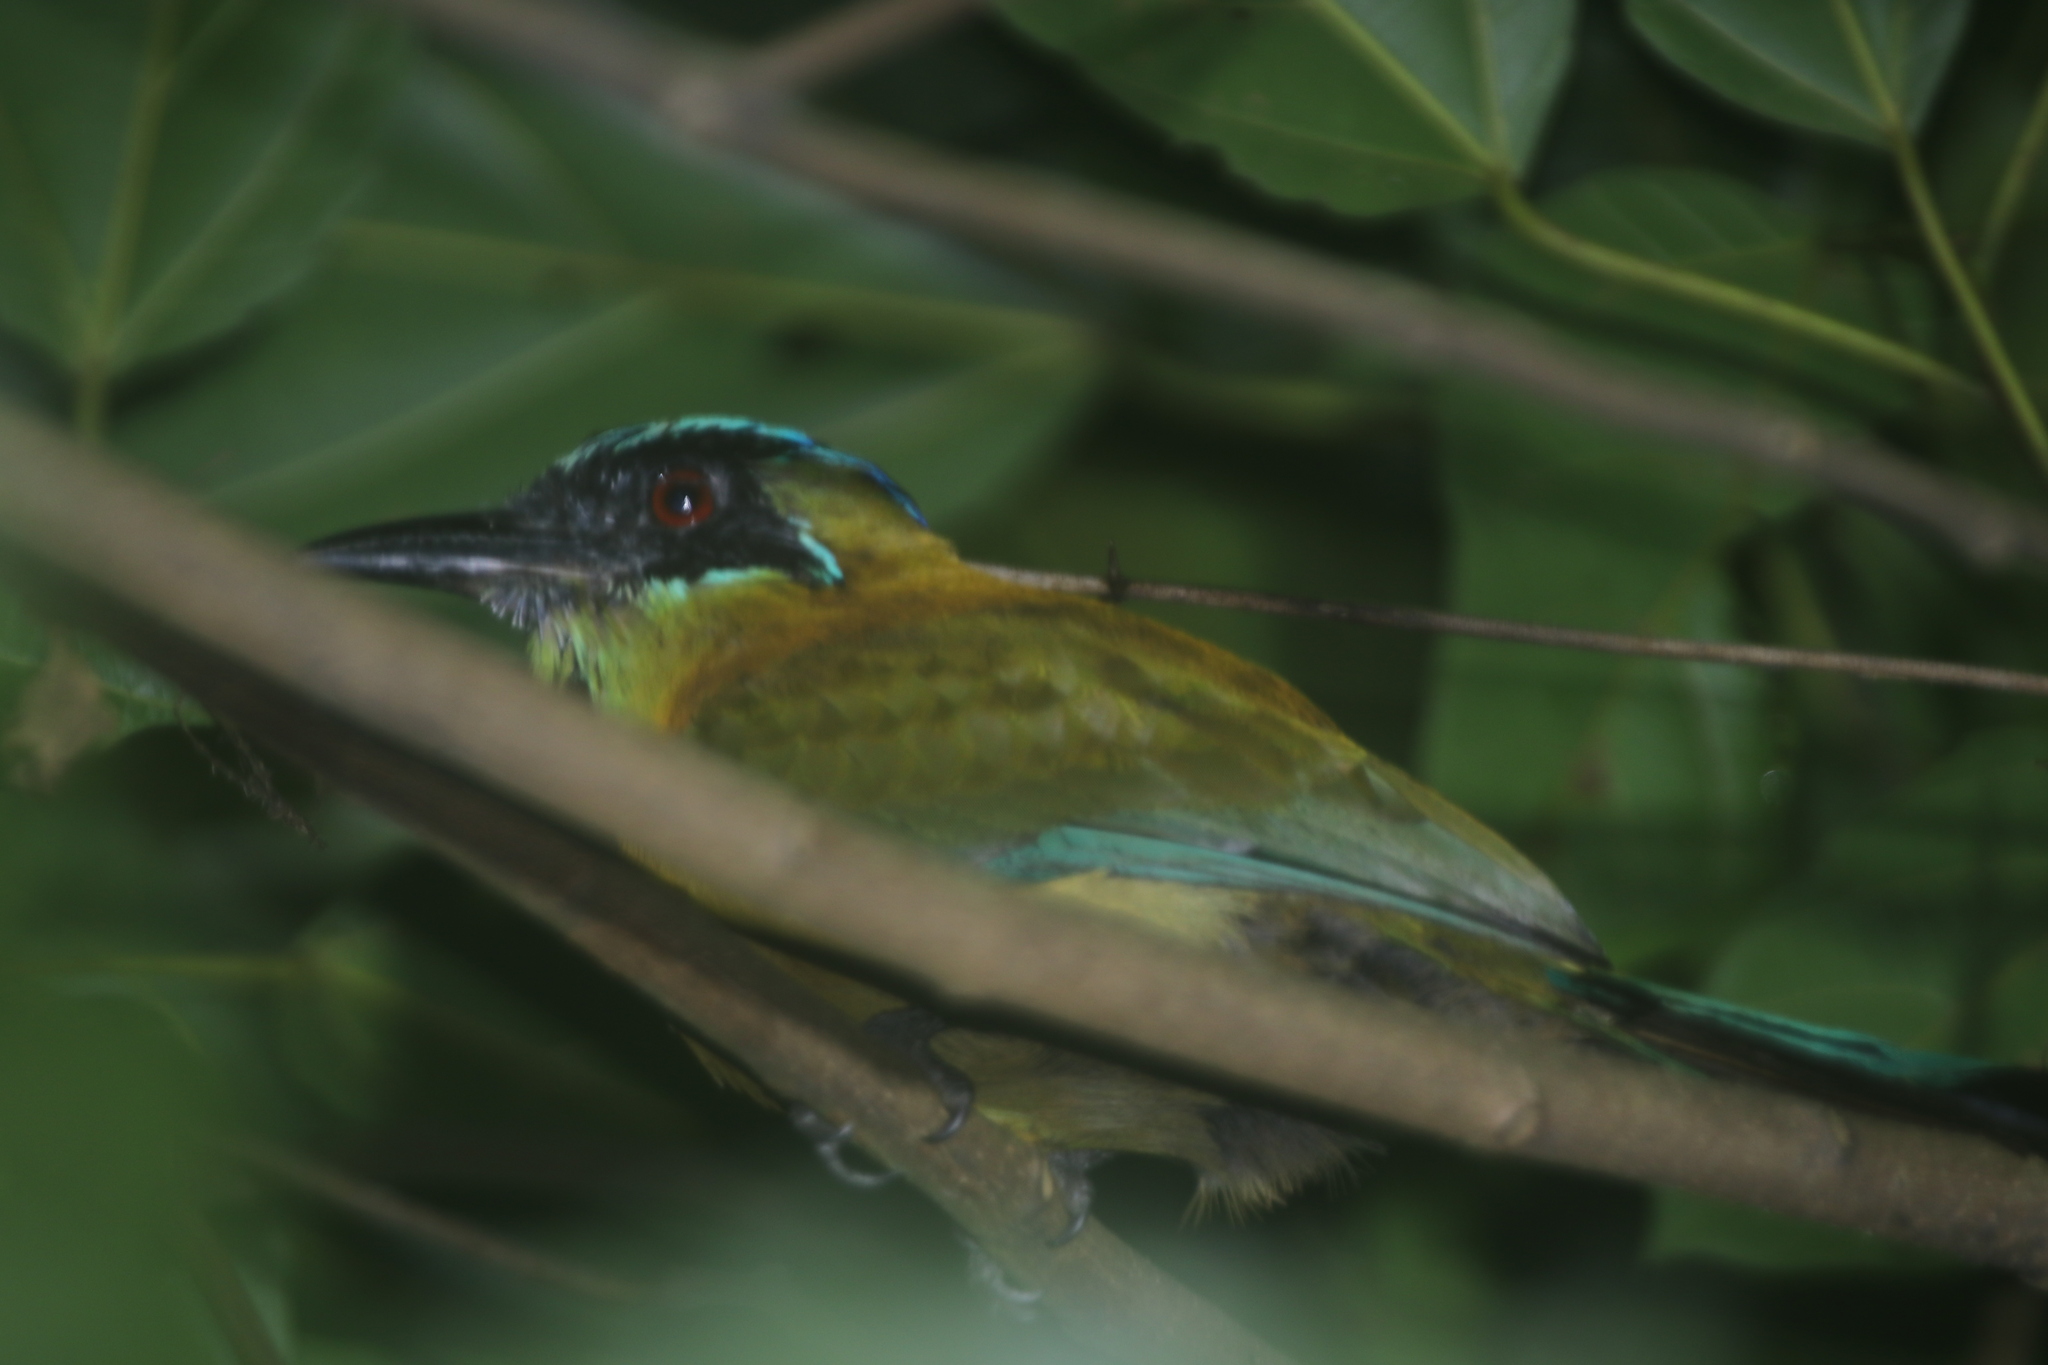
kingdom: Animalia
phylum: Chordata
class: Aves
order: Coraciiformes
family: Momotidae
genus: Momotus
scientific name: Momotus lessonii
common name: Lesson's motmot
